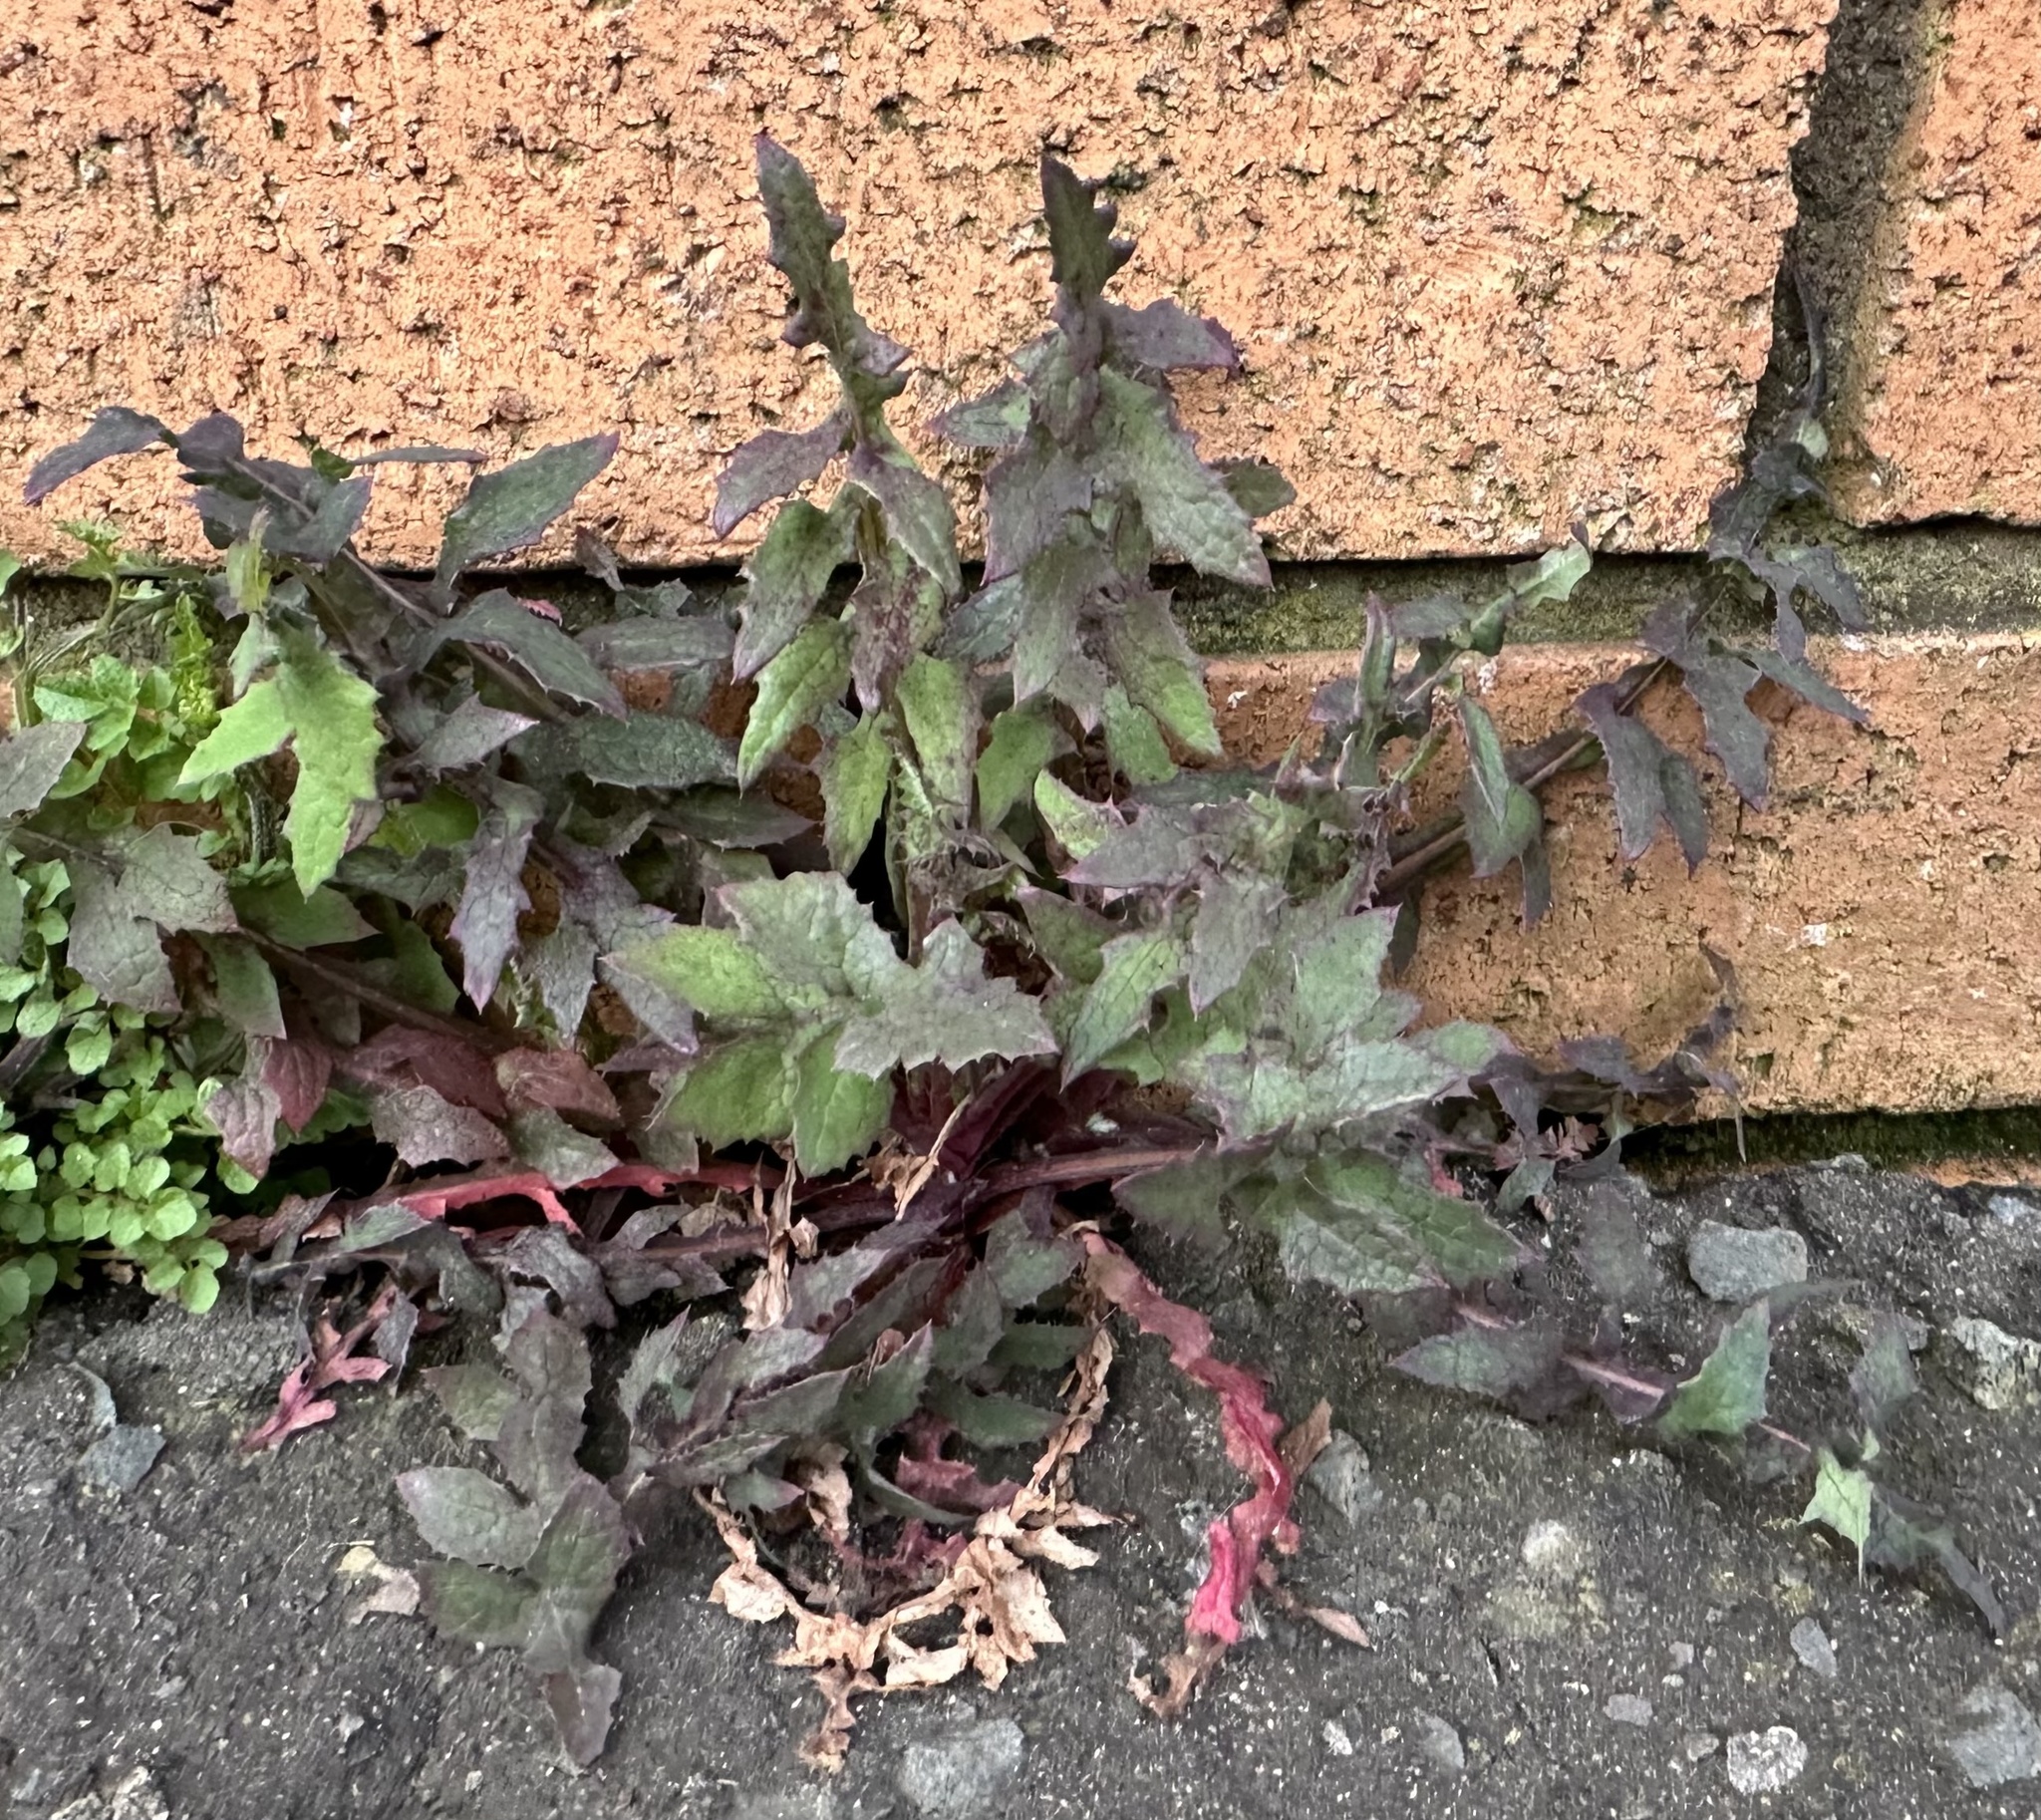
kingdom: Plantae
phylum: Tracheophyta
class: Magnoliopsida
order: Asterales
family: Asteraceae
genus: Sonchus
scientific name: Sonchus oleraceus
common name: Common sowthistle
